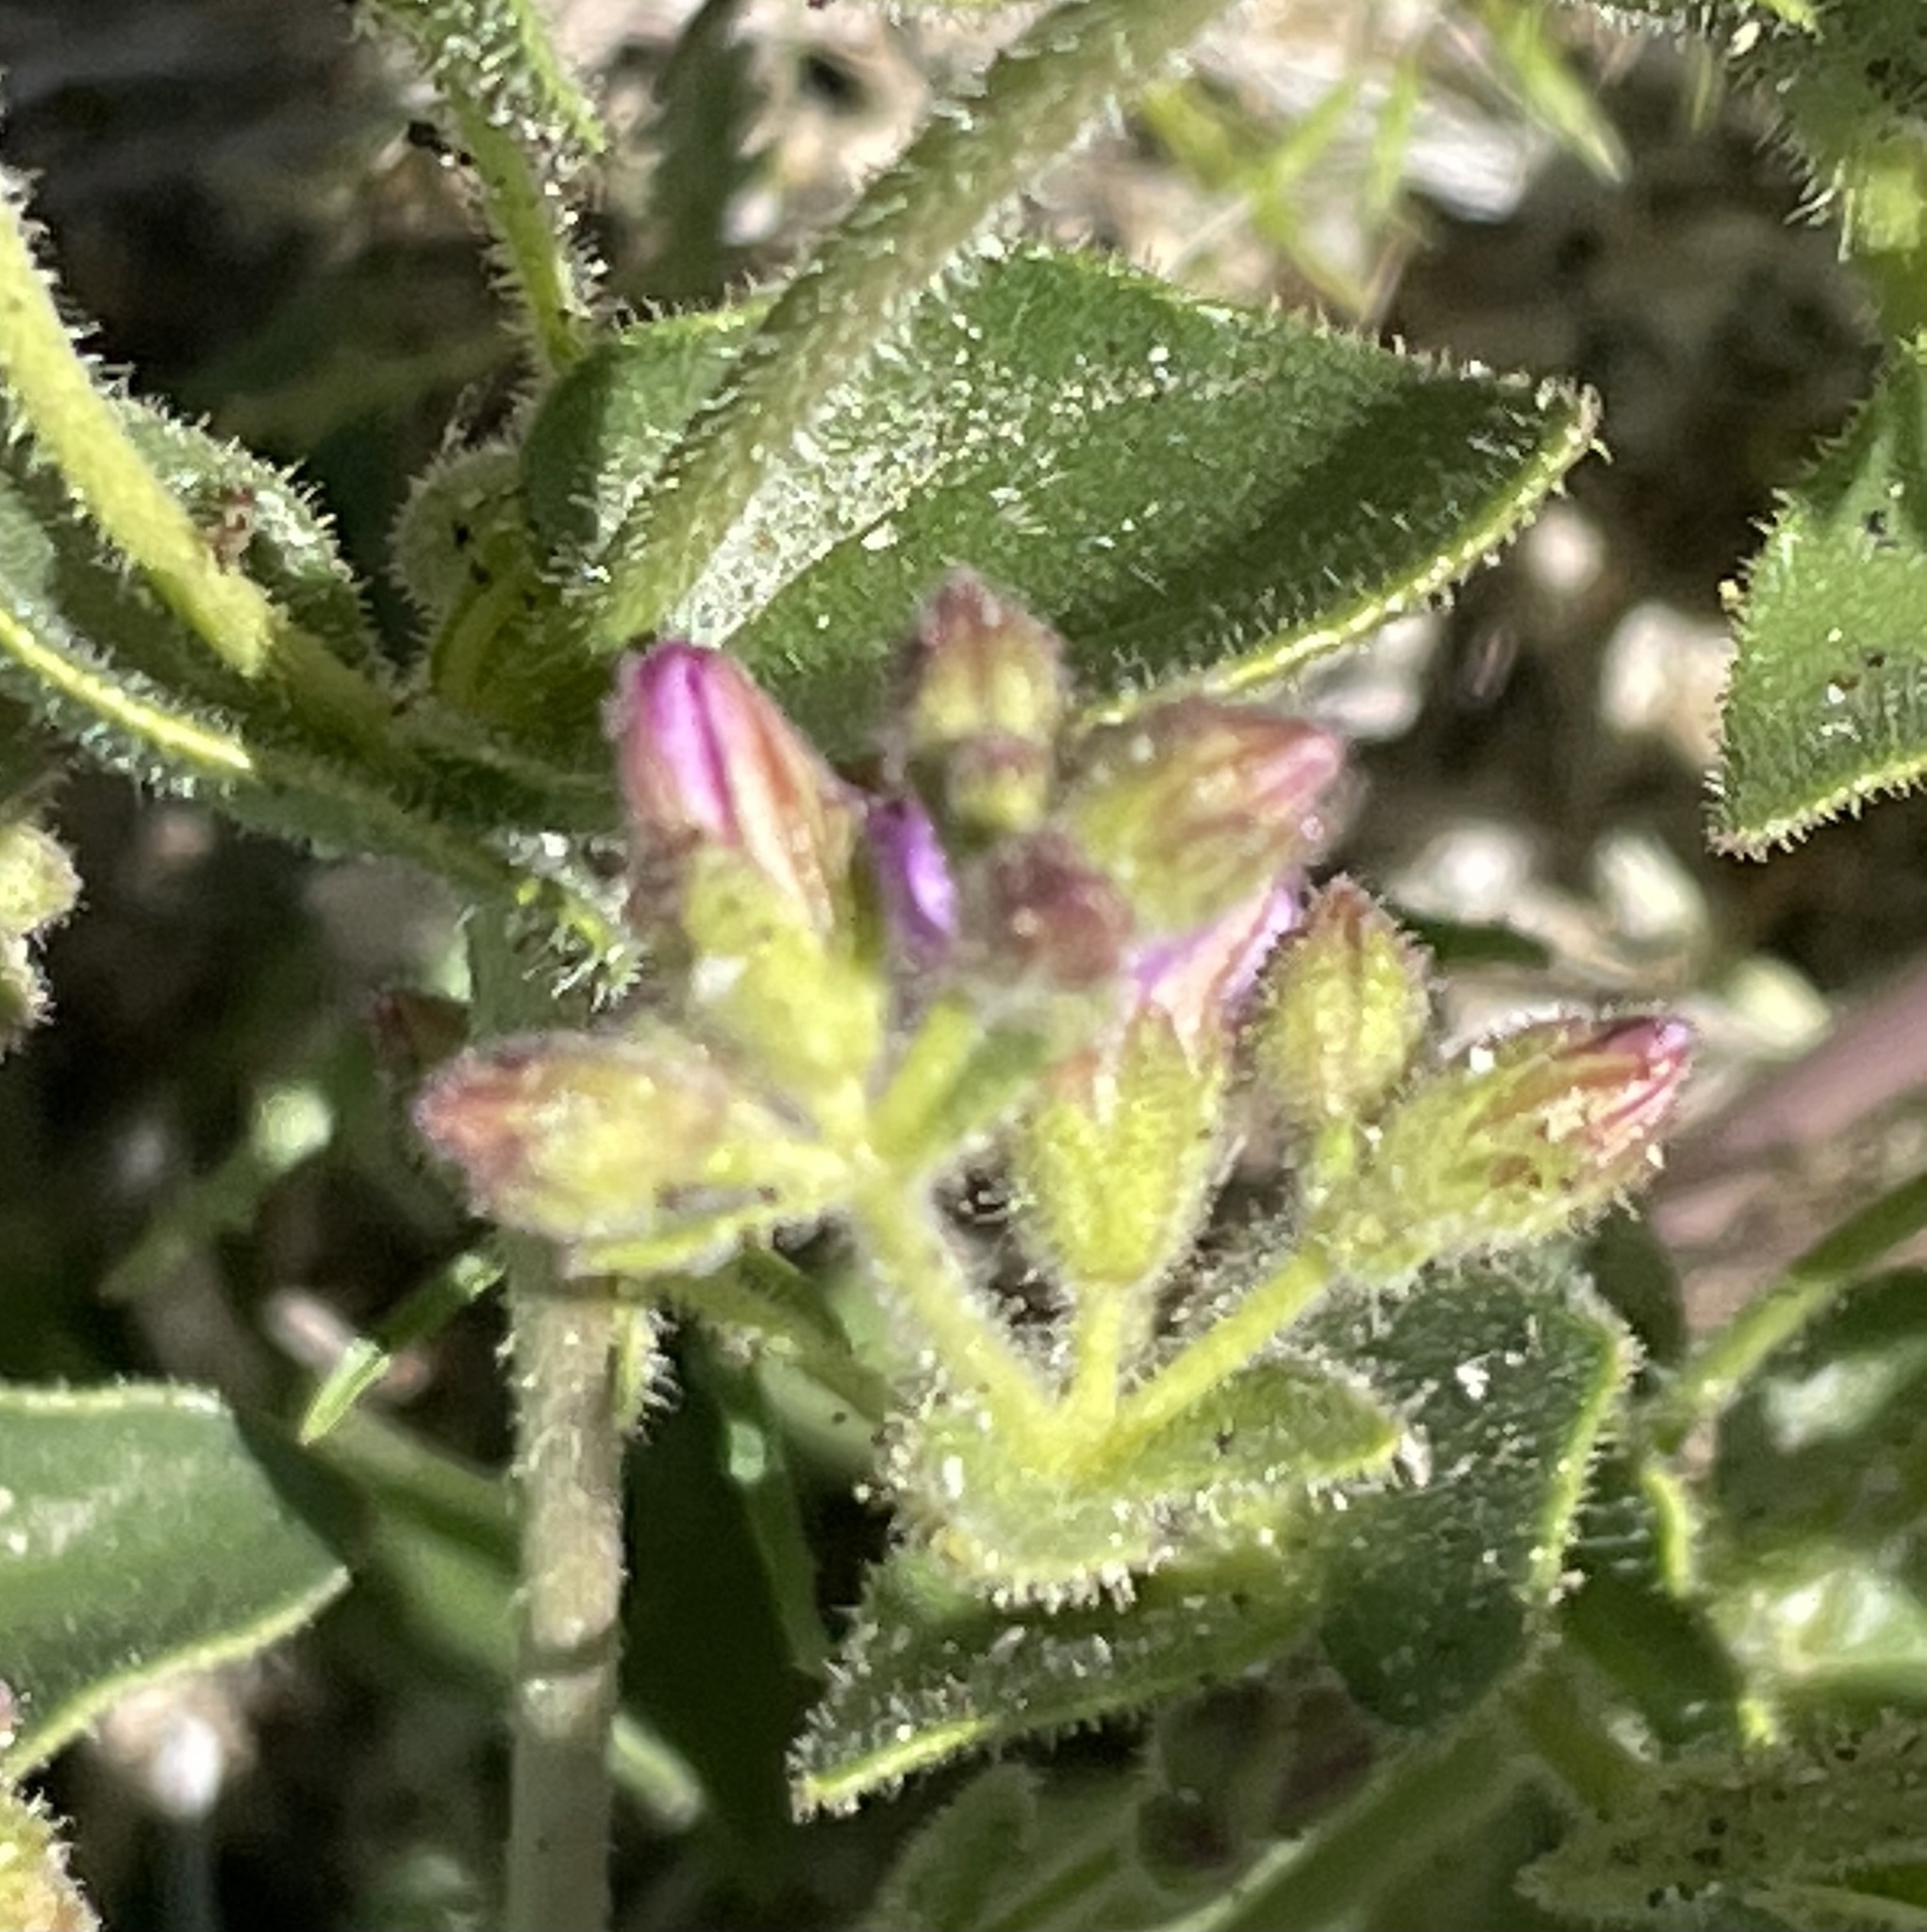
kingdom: Plantae
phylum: Tracheophyta
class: Magnoliopsida
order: Caryophyllales
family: Nyctaginaceae
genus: Mirabilis
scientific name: Mirabilis laevis
